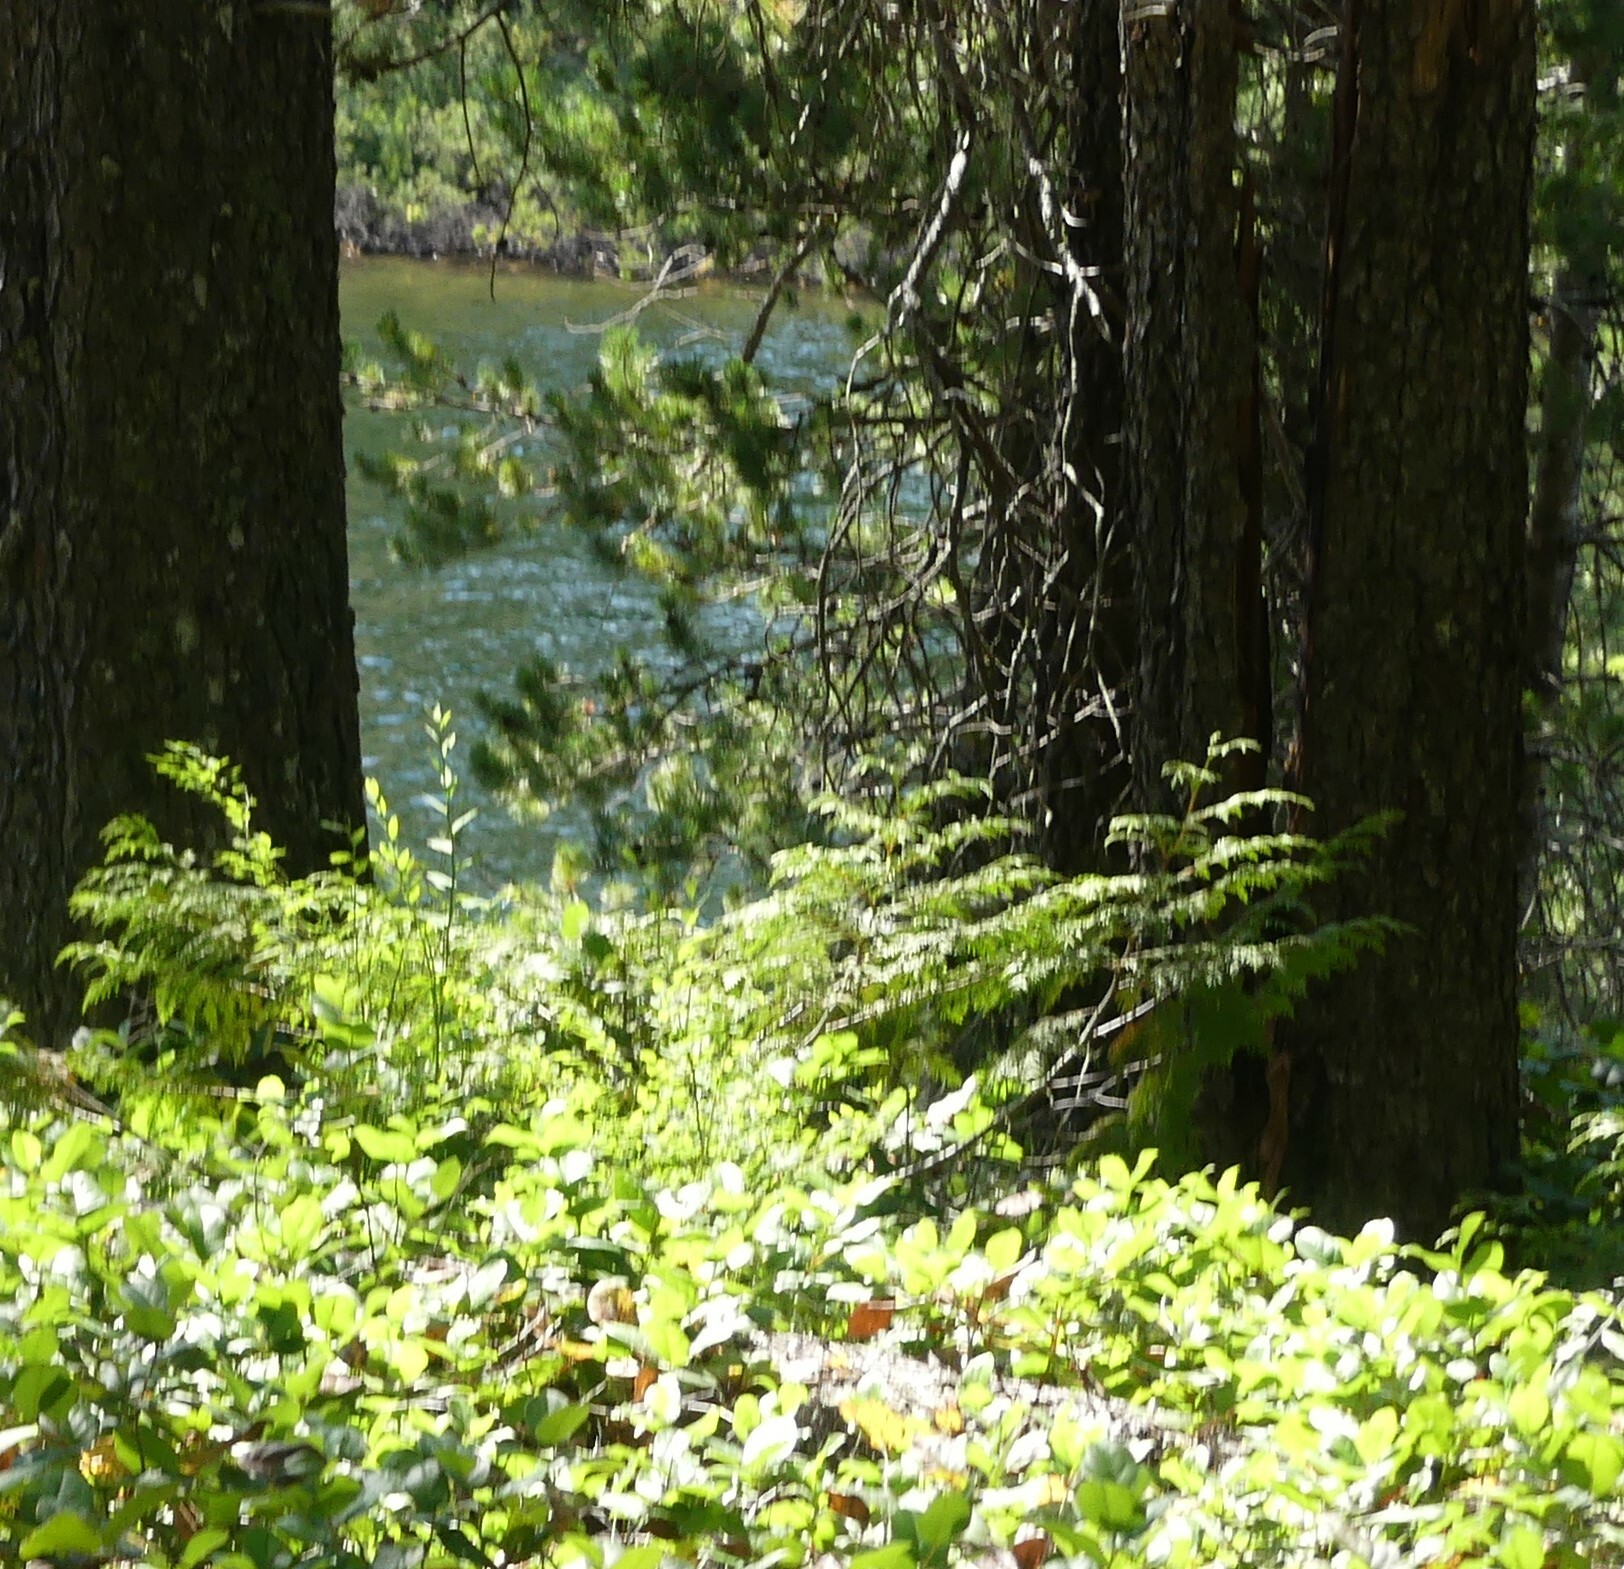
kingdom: Plantae
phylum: Tracheophyta
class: Pinopsida
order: Pinales
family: Cupressaceae
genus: Thuja
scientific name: Thuja plicata
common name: Western red-cedar
